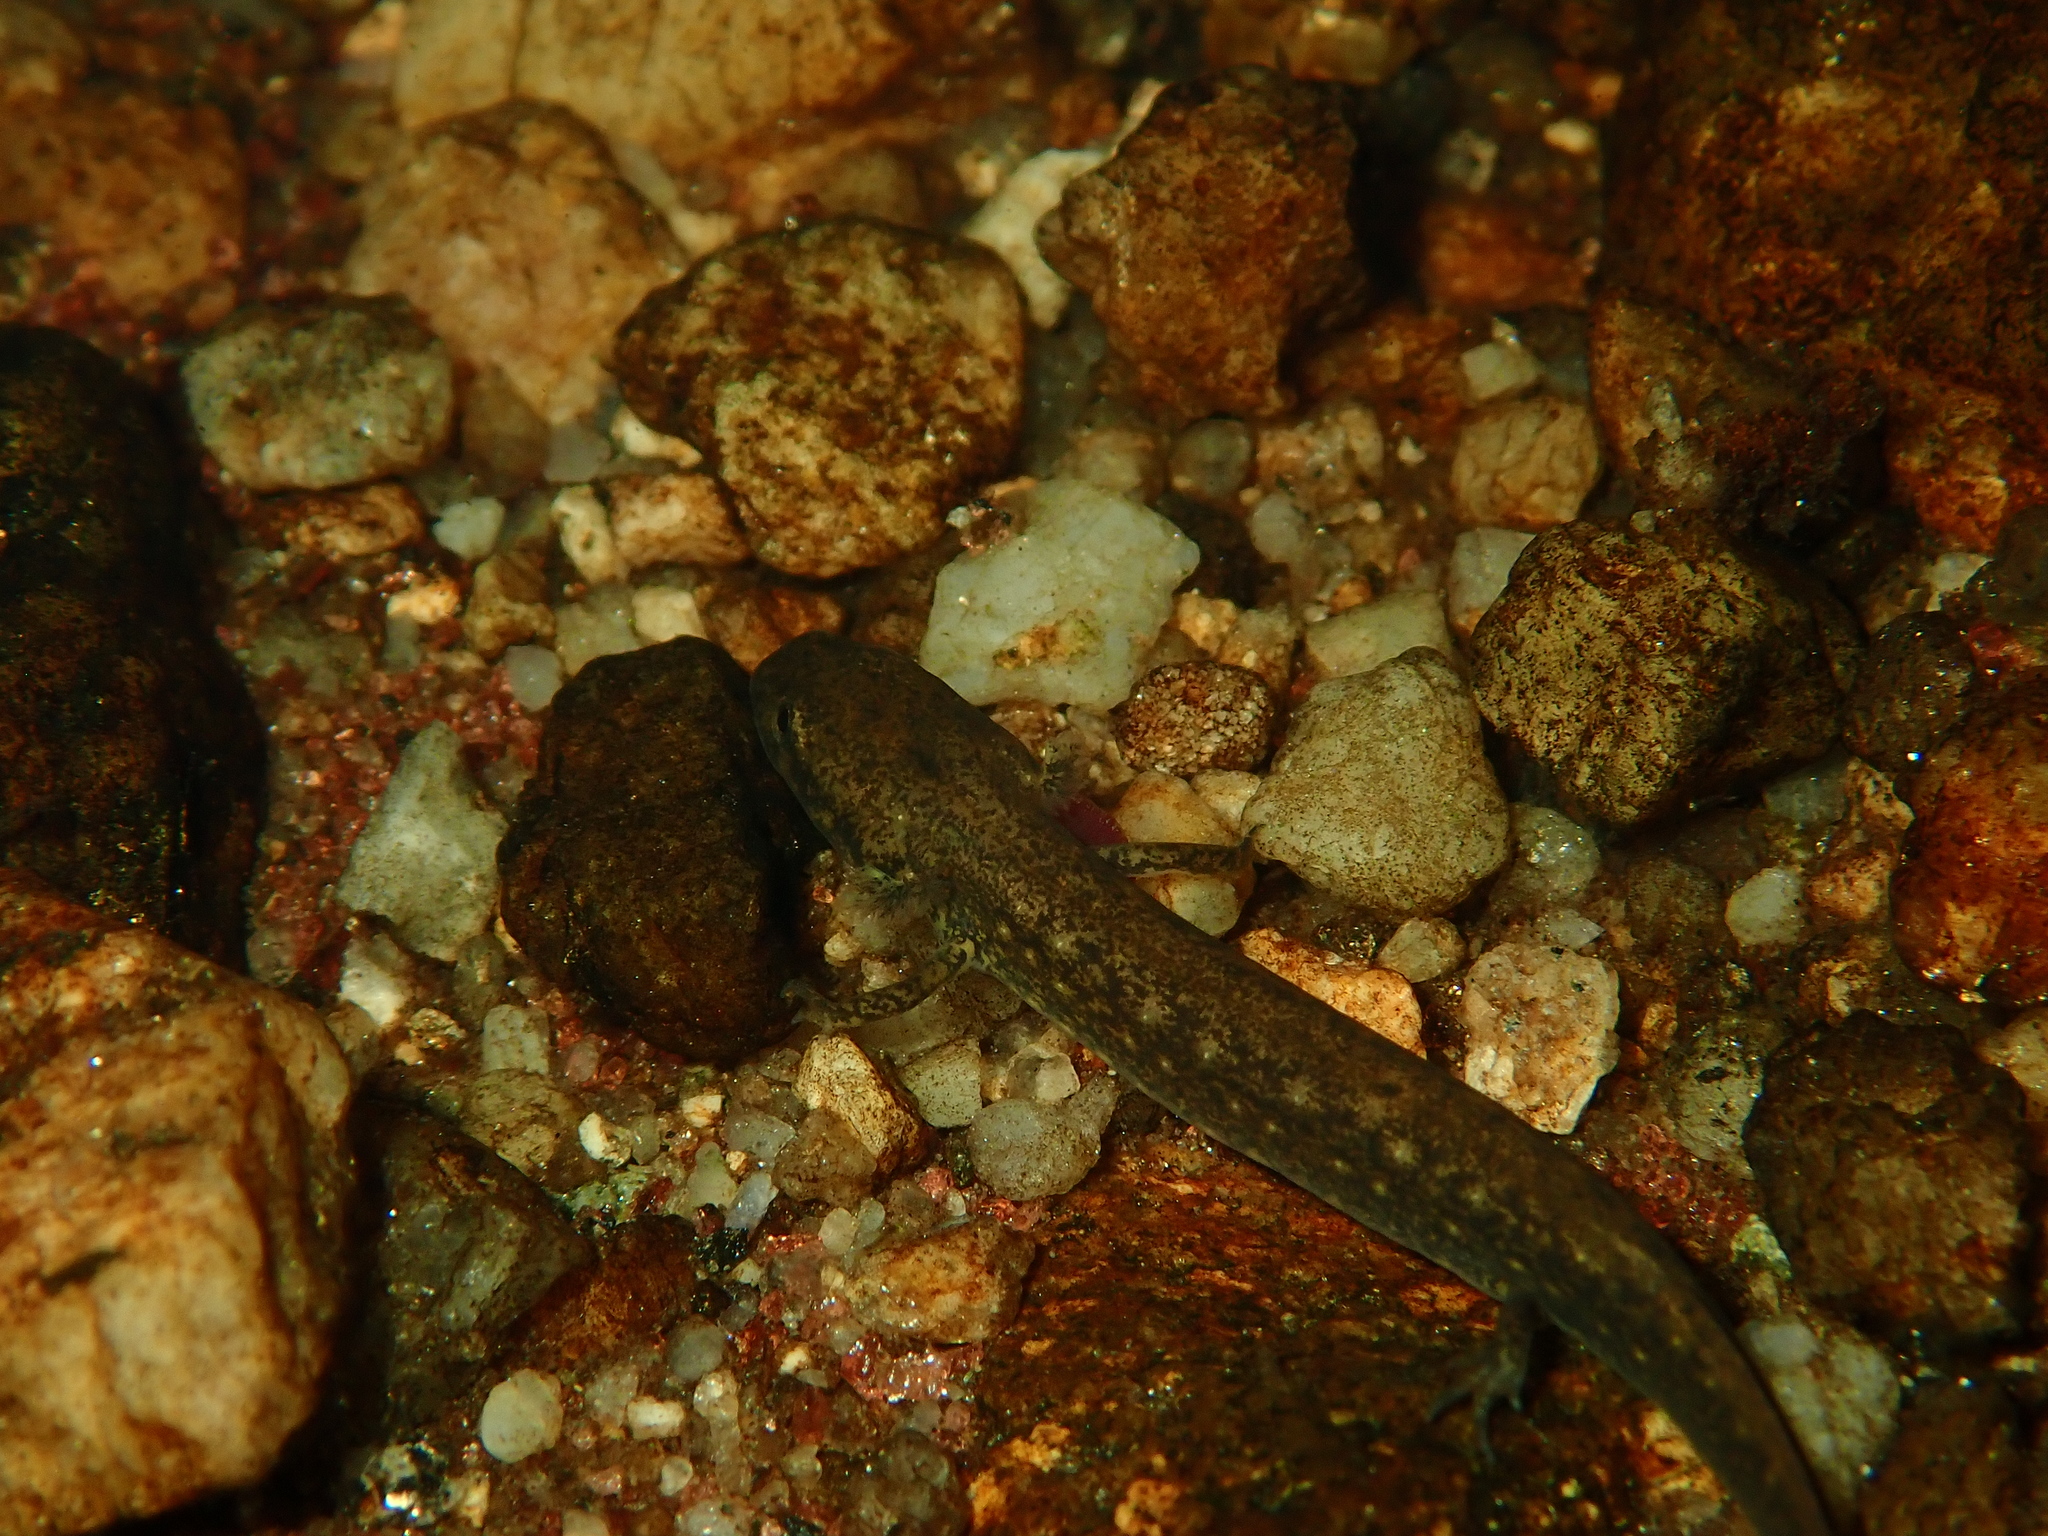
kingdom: Animalia
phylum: Chordata
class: Amphibia
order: Caudata
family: Plethodontidae
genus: Eurycea
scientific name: Eurycea bislineata
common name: Northern two-lined salamander
